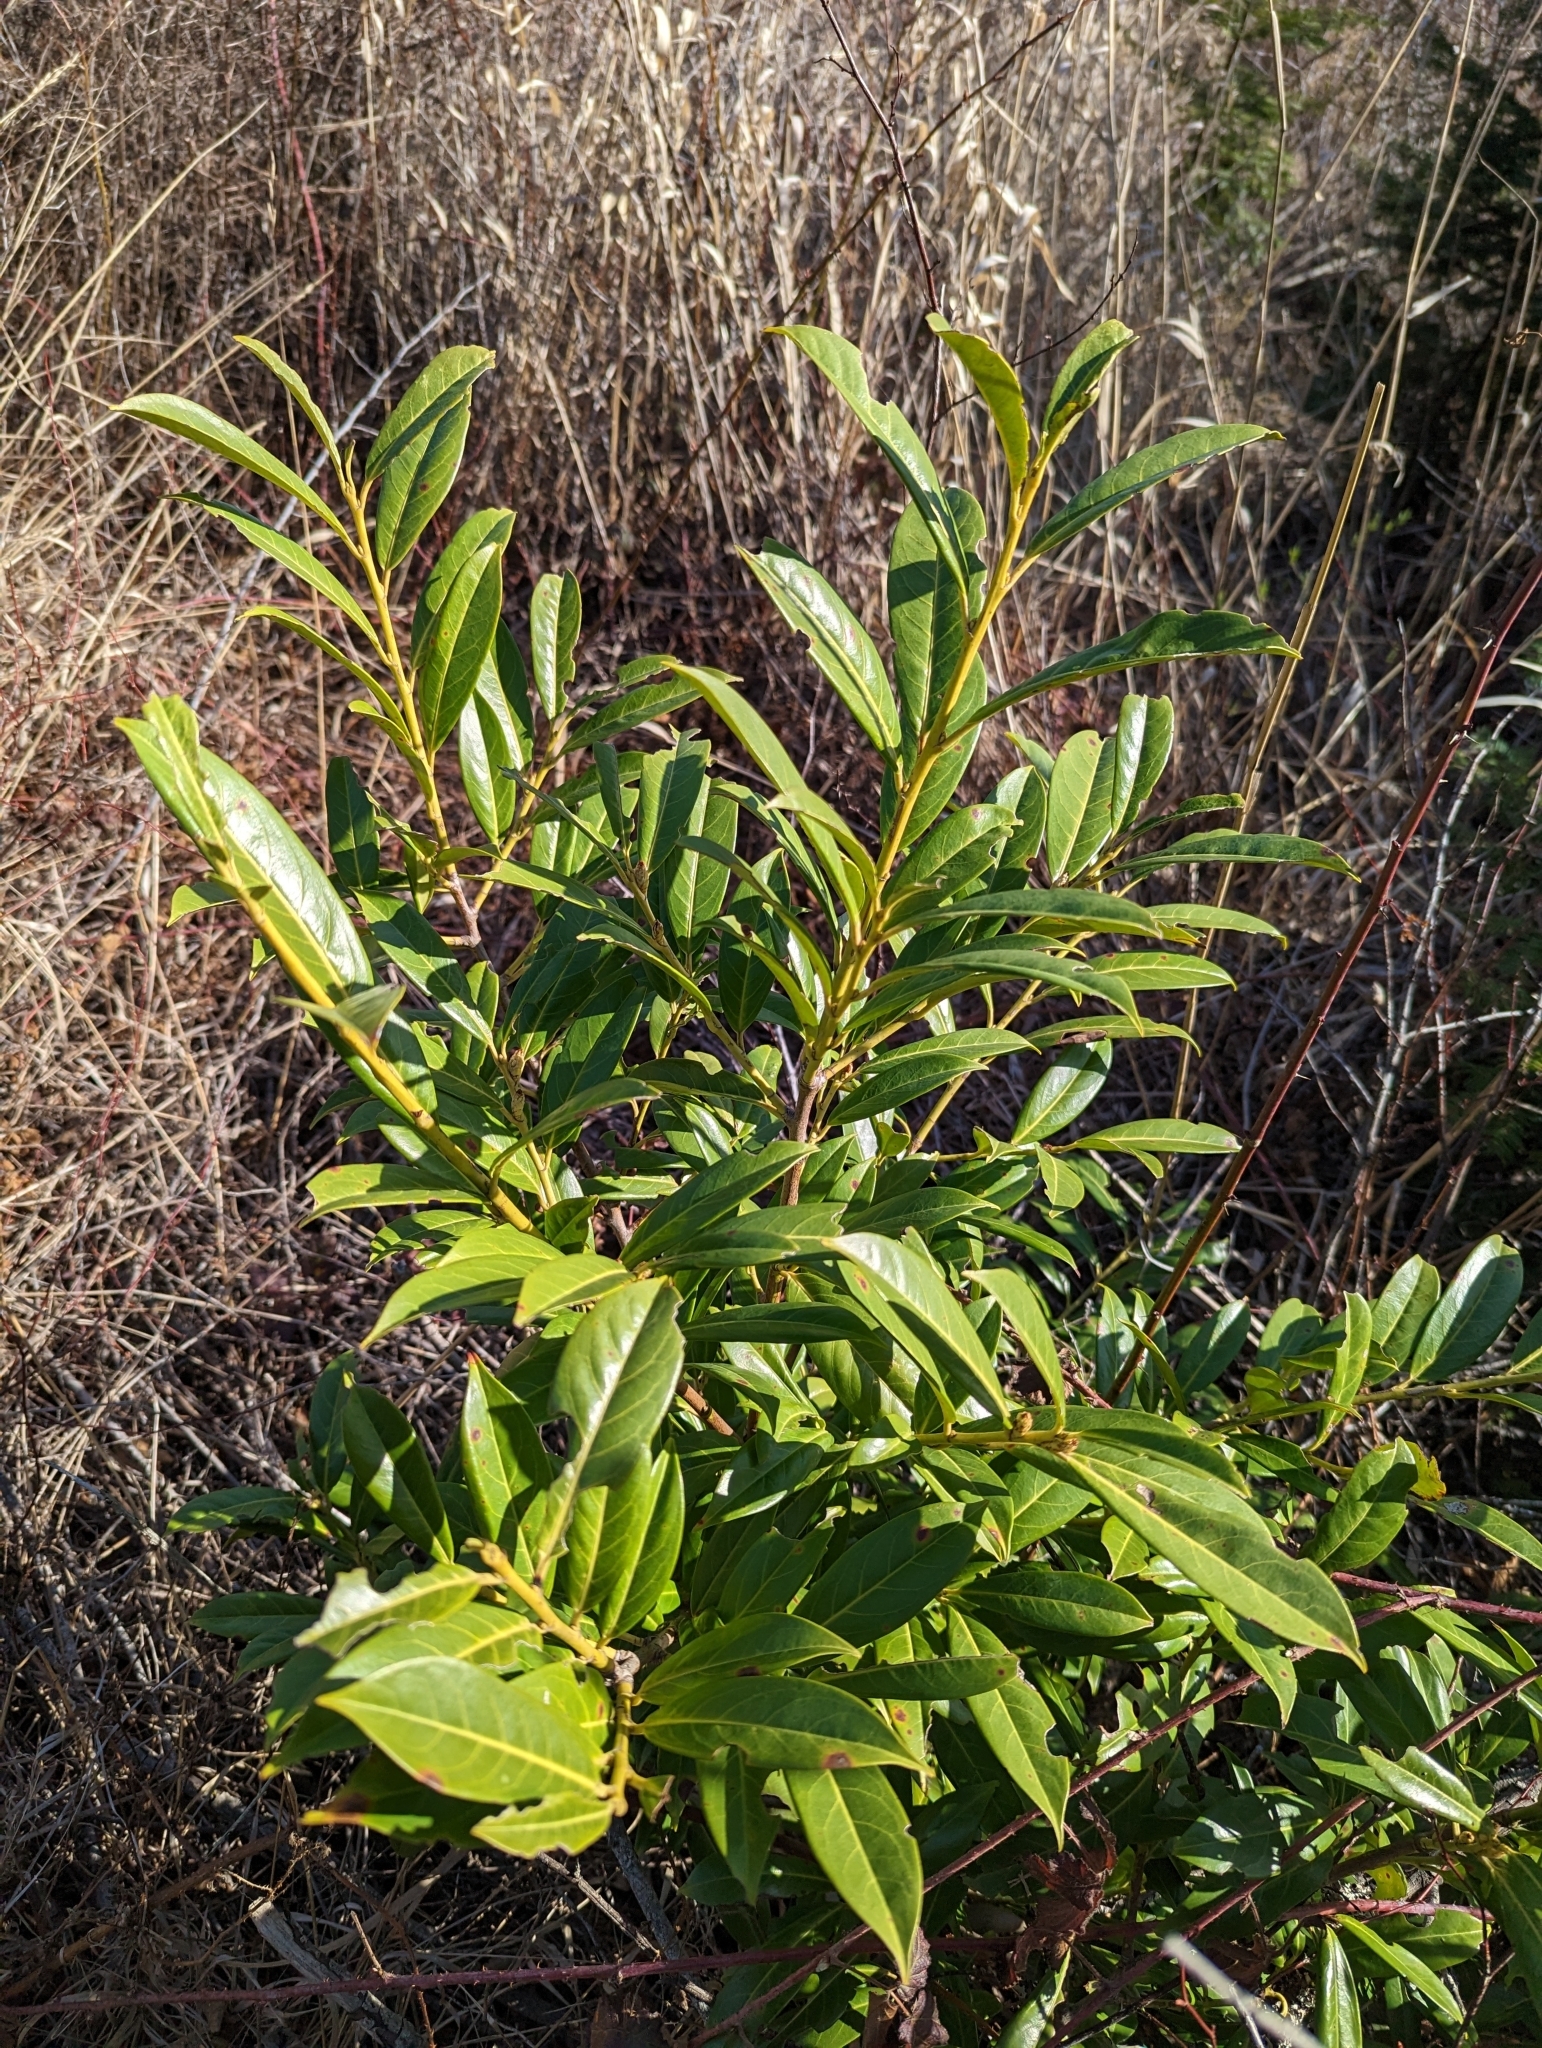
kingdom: Plantae
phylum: Tracheophyta
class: Magnoliopsida
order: Rosales
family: Rosaceae
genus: Prunus
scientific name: Prunus laurocerasus
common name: Cherry laurel
